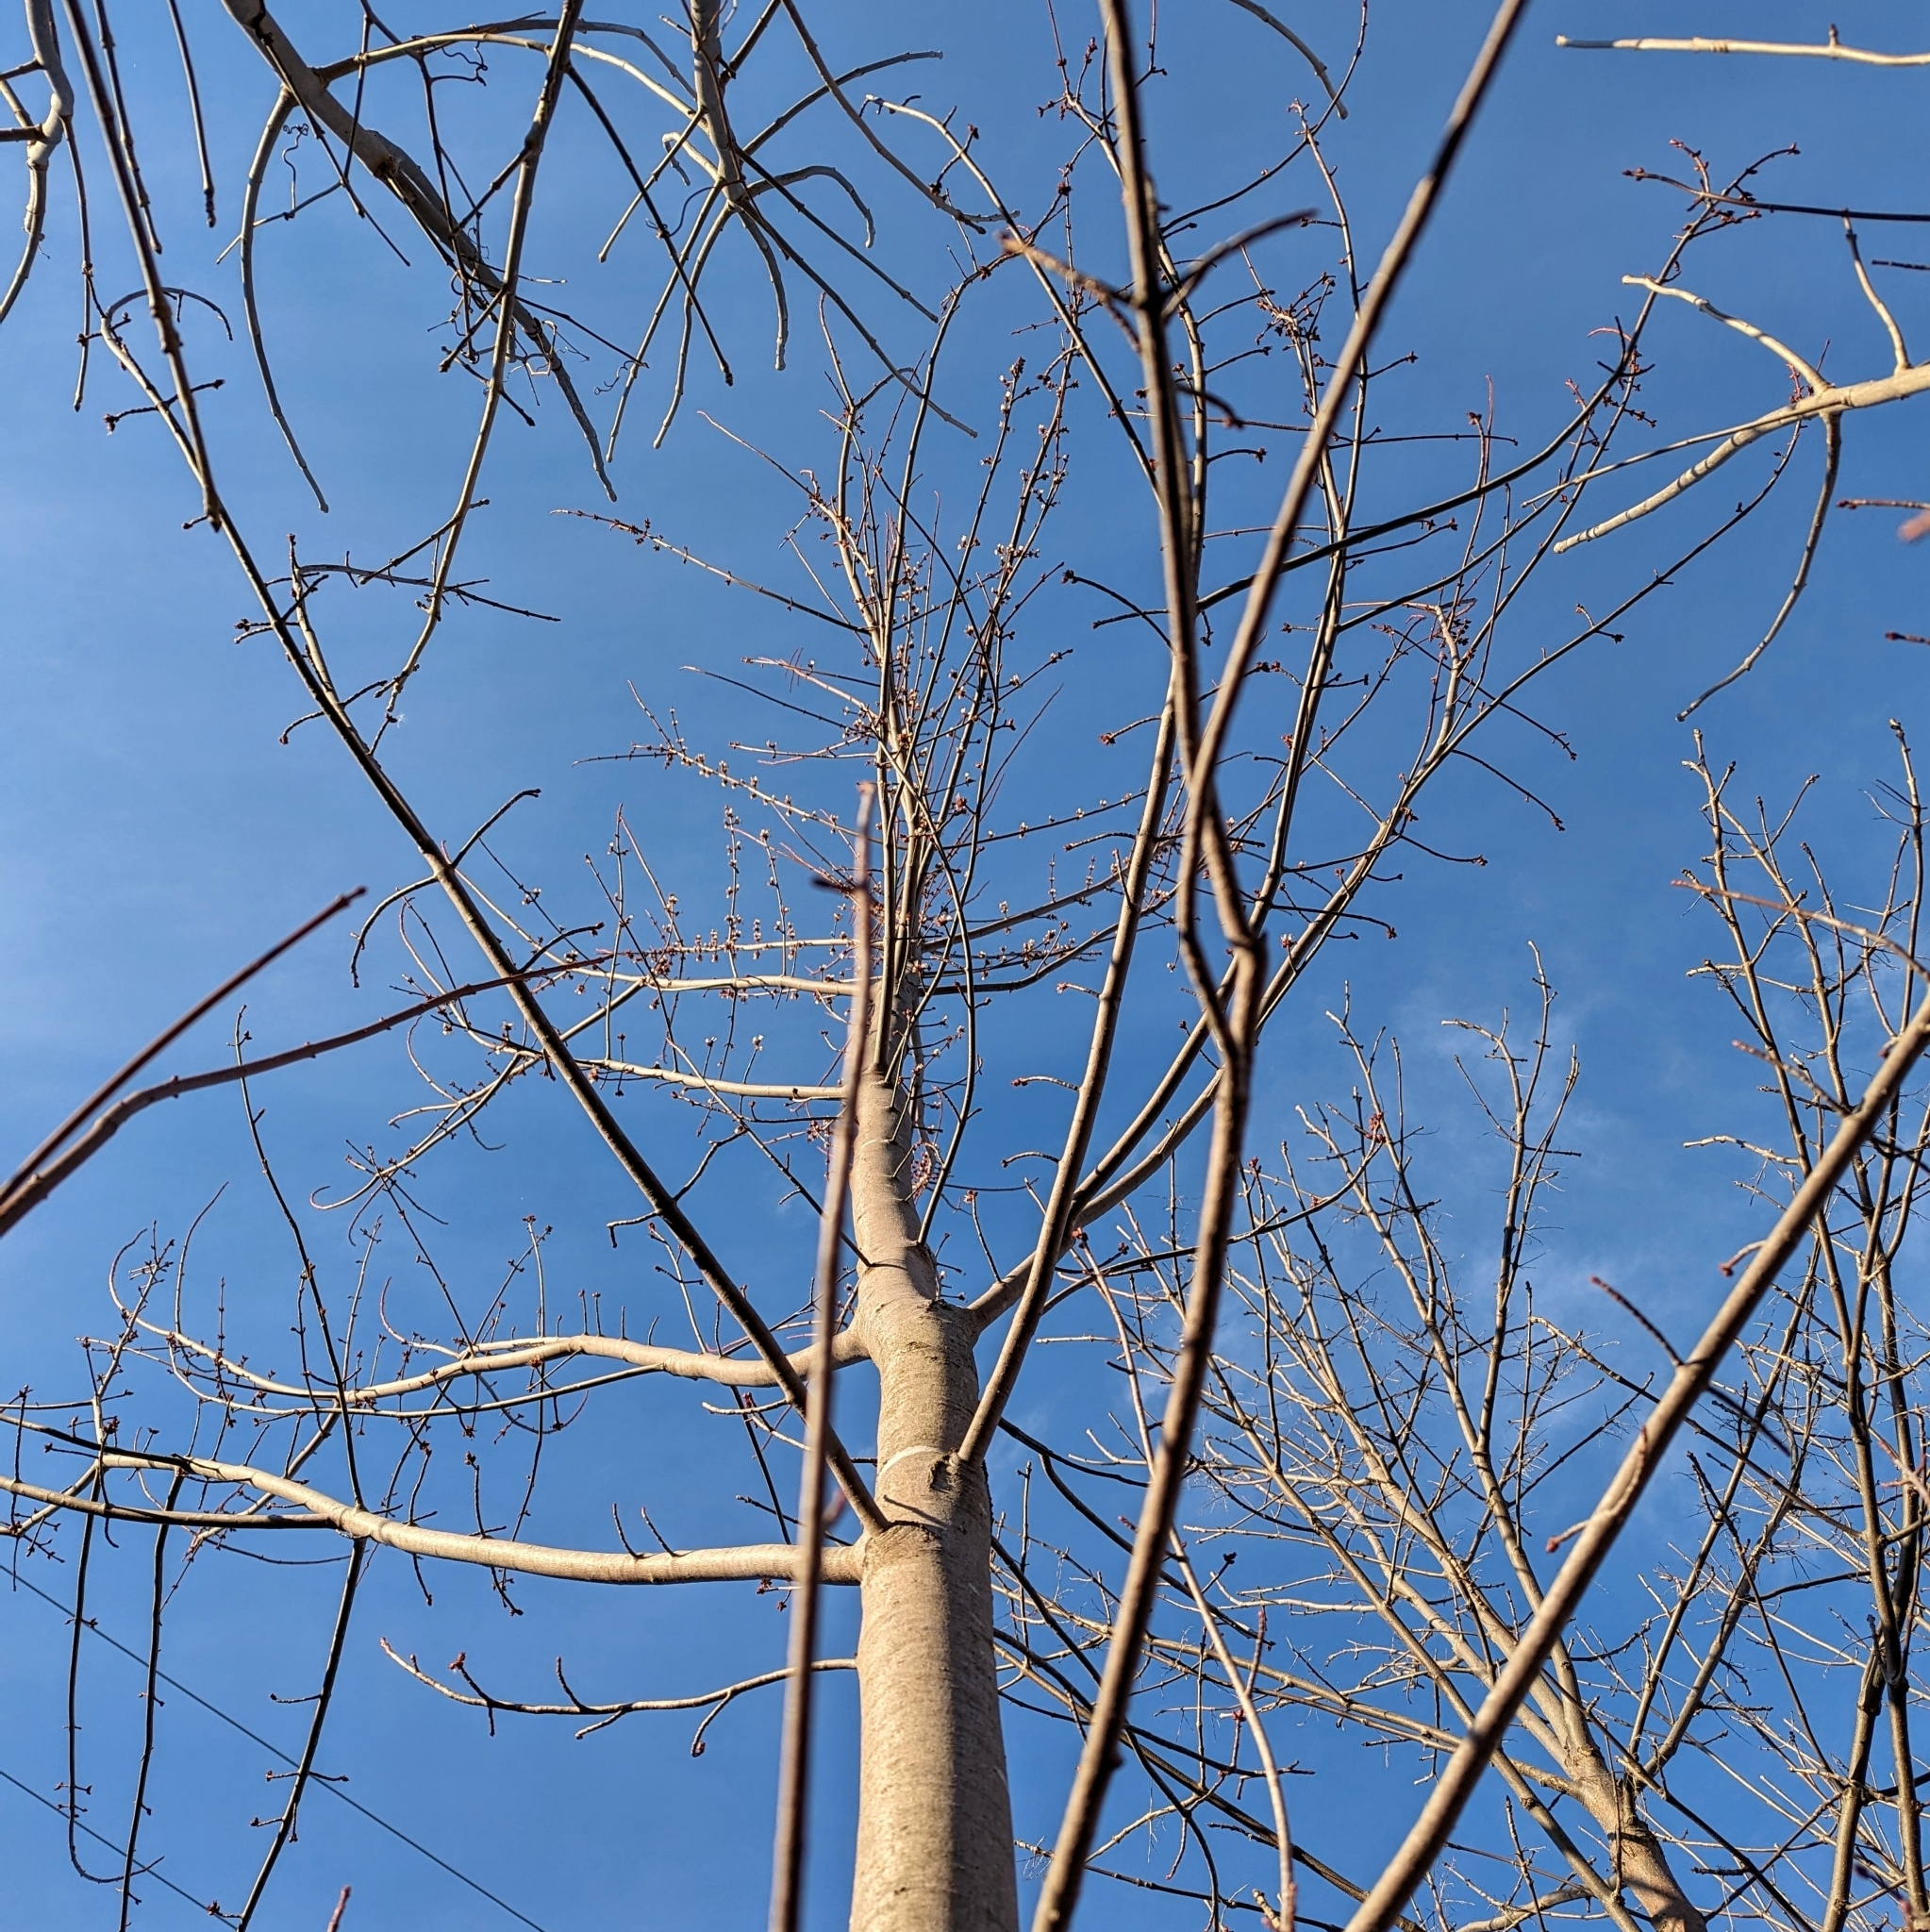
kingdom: Plantae
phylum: Tracheophyta
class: Magnoliopsida
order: Sapindales
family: Sapindaceae
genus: Acer
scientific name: Acer saccharinum
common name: Silver maple
